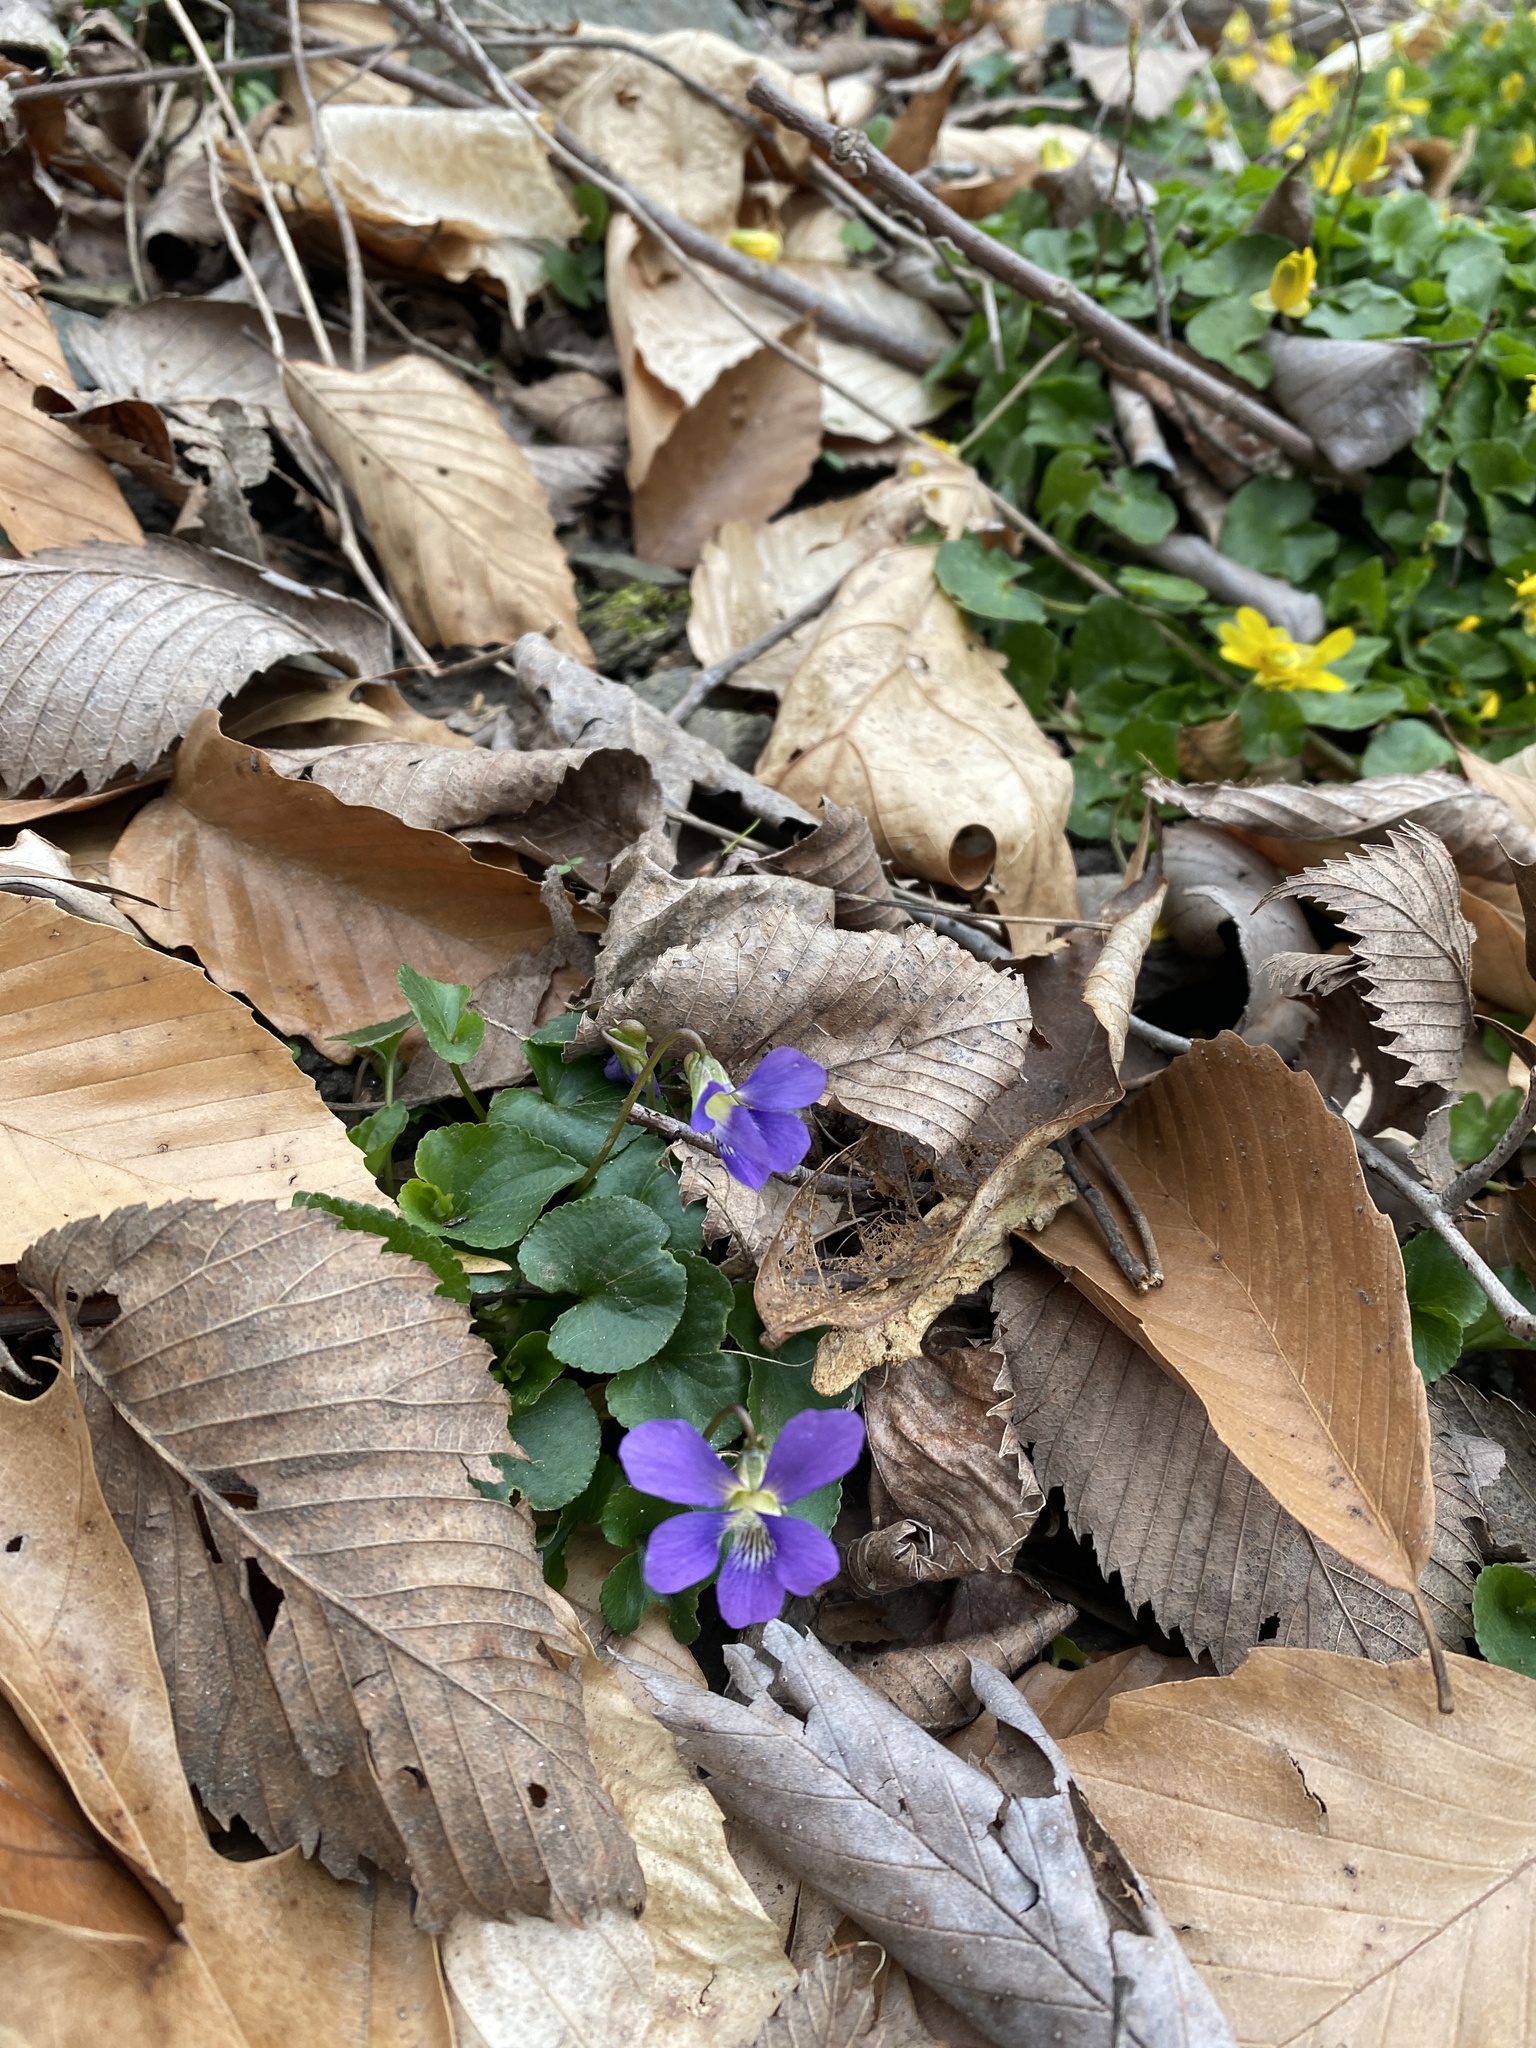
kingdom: Plantae
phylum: Tracheophyta
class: Magnoliopsida
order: Malpighiales
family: Violaceae
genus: Viola
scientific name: Viola sororia
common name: Dooryard violet
